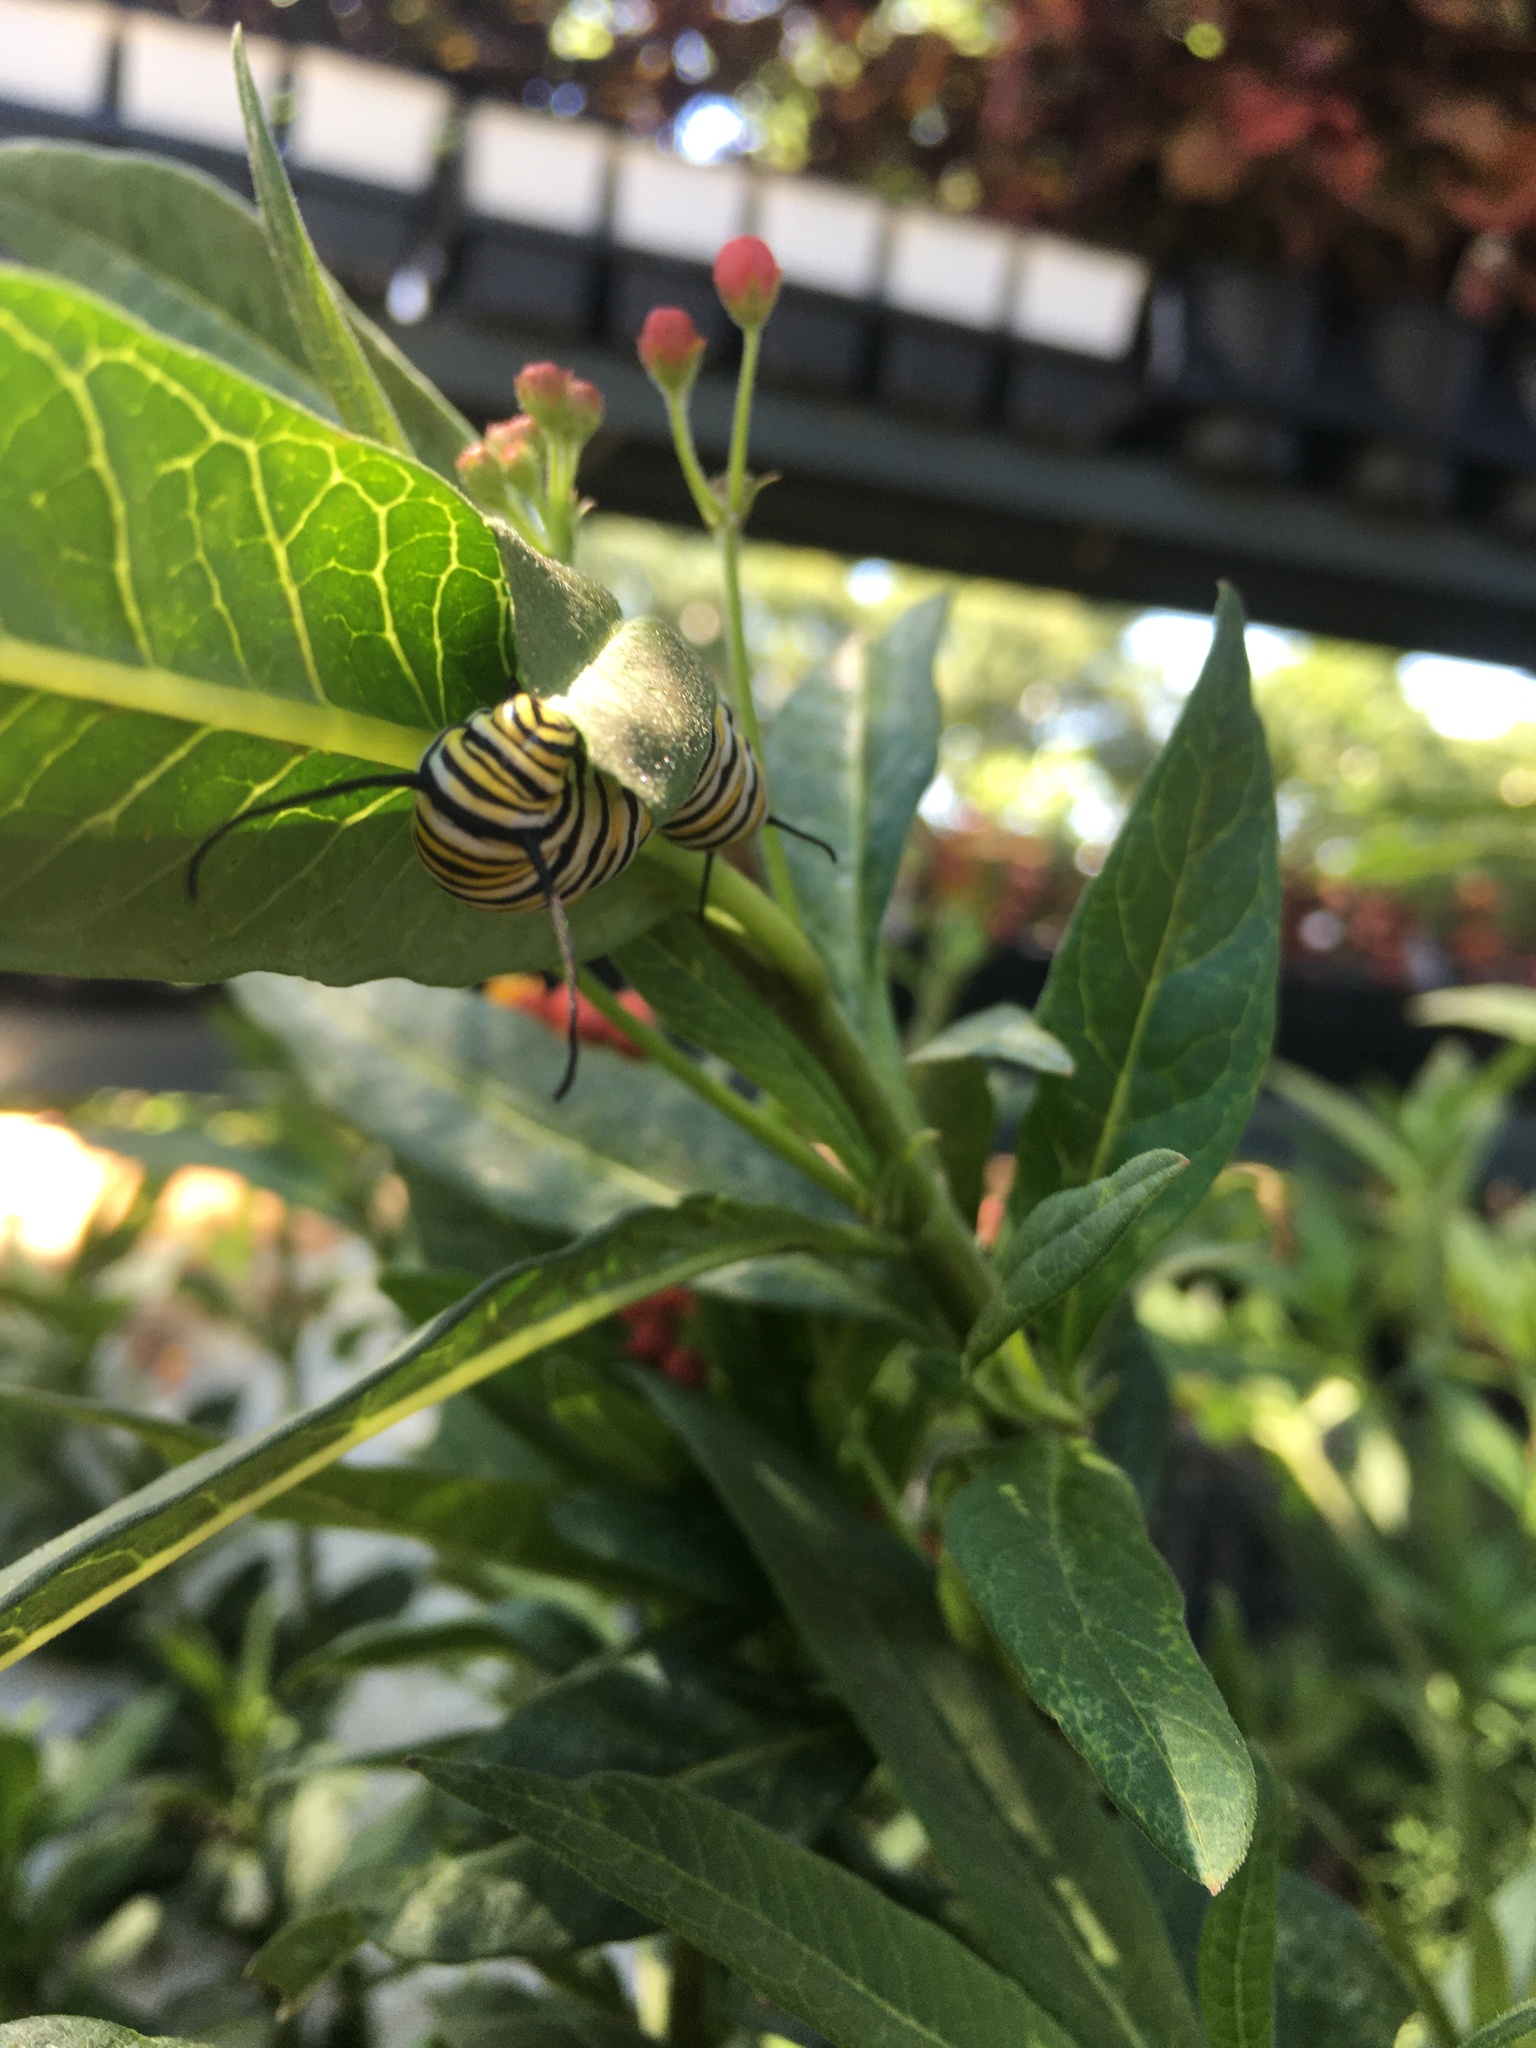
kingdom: Animalia
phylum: Arthropoda
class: Insecta
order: Lepidoptera
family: Nymphalidae
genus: Danaus
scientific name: Danaus plexippus
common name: Monarch
